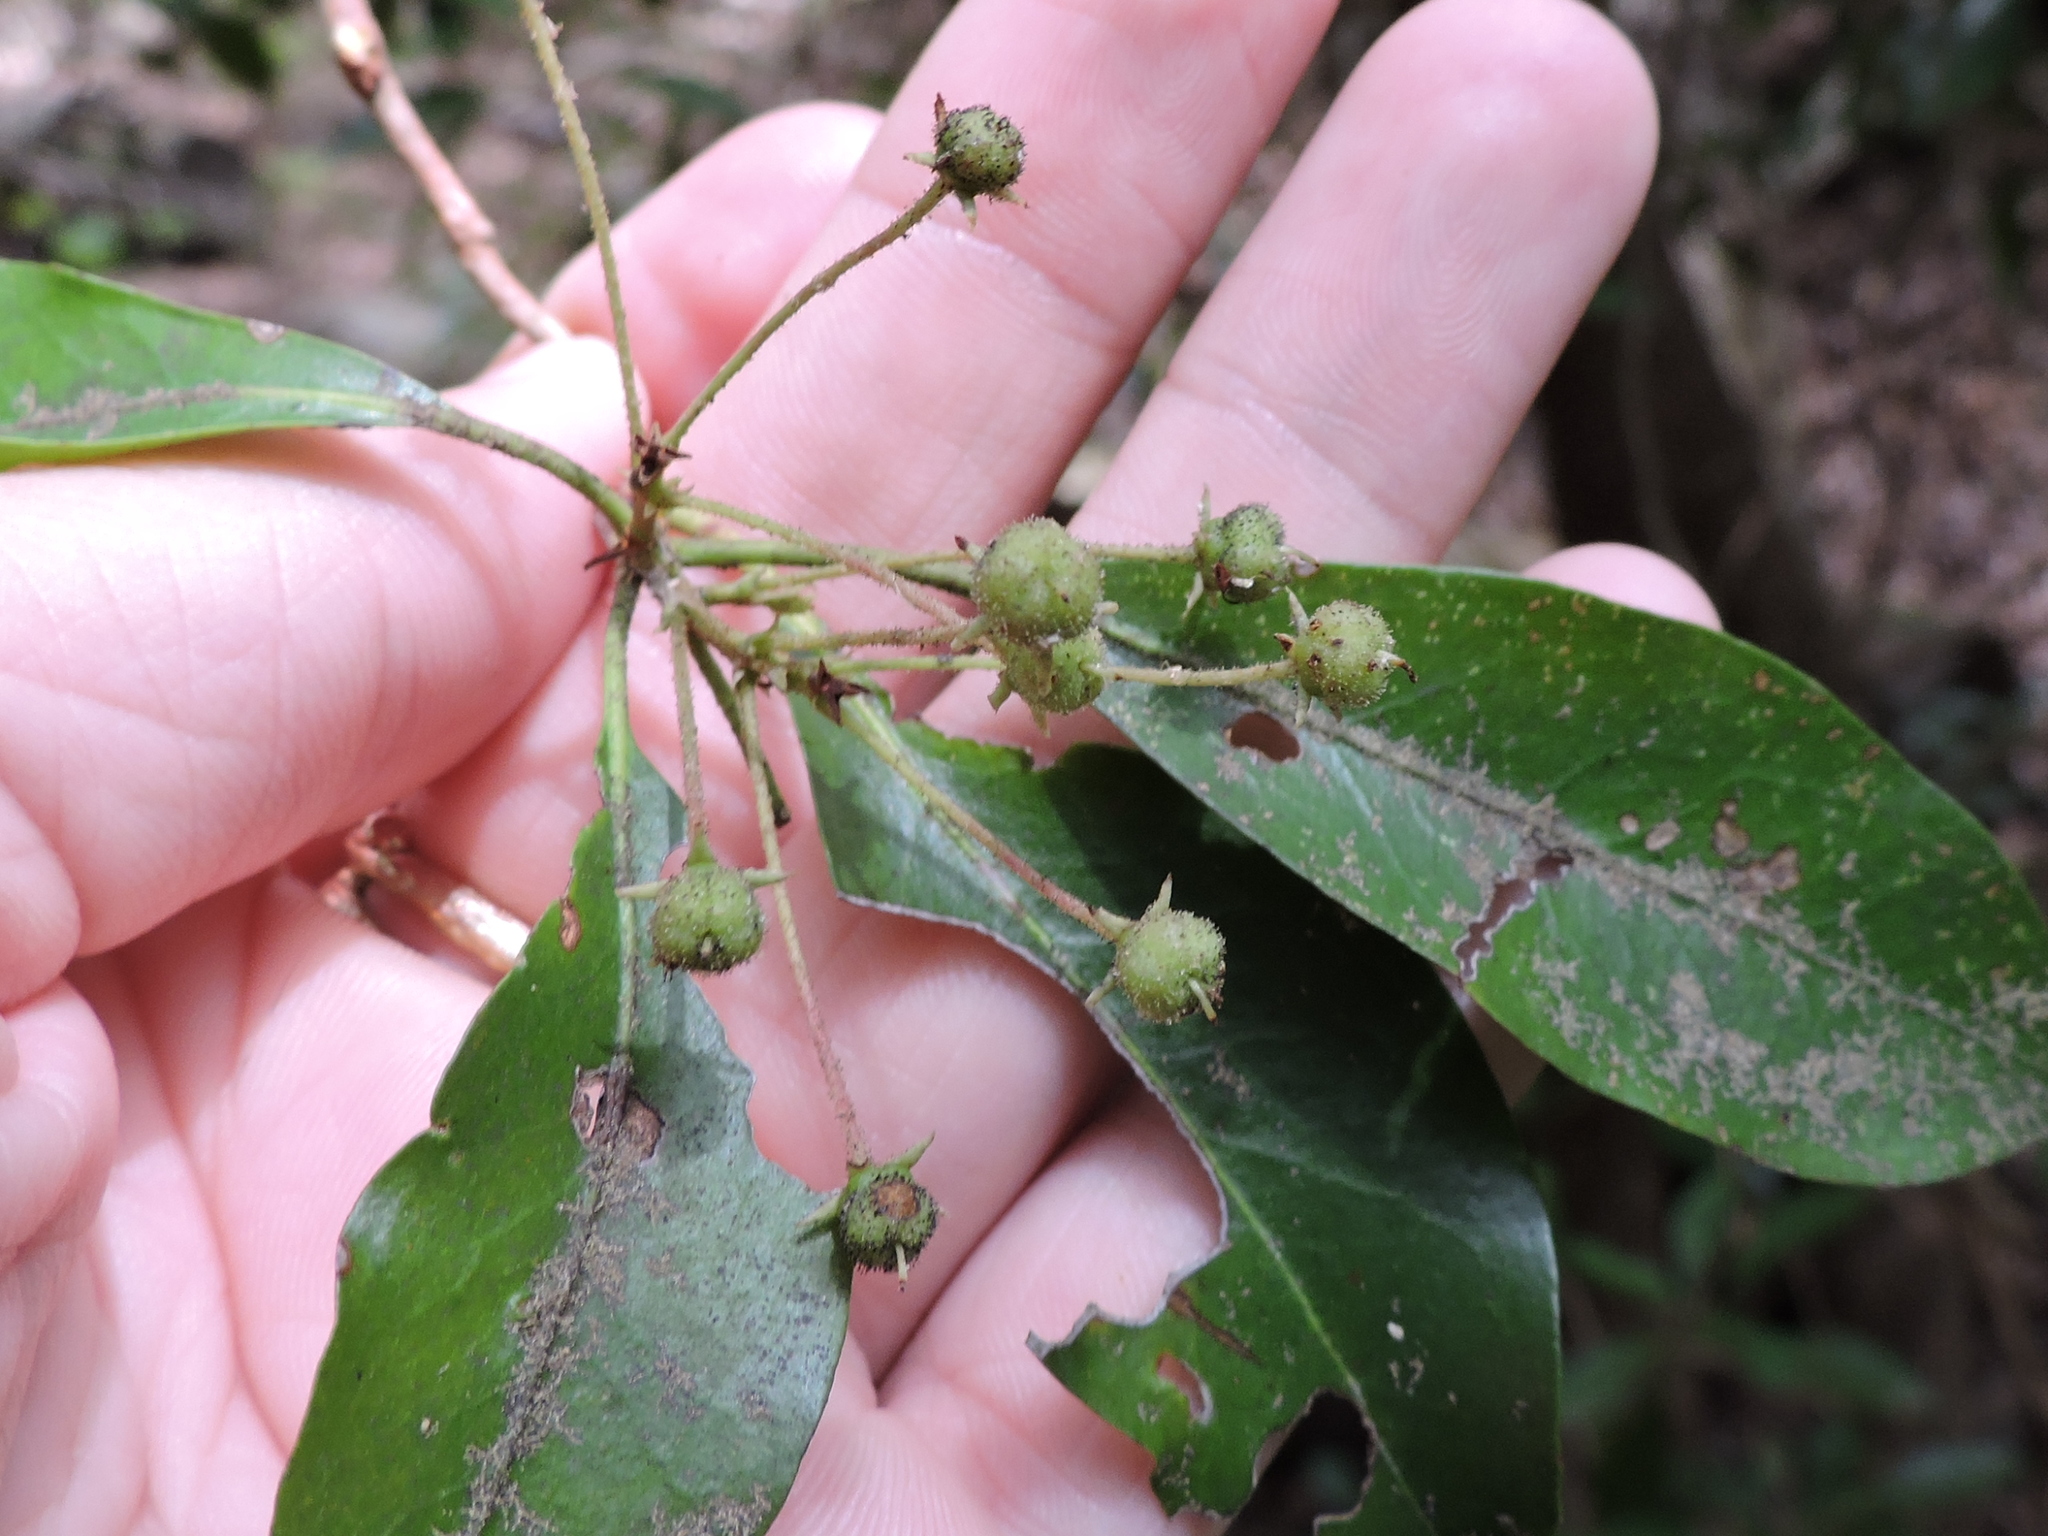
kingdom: Plantae
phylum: Tracheophyta
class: Magnoliopsida
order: Ericales
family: Ericaceae
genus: Kalmia
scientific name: Kalmia latifolia
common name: Mountain-laurel
